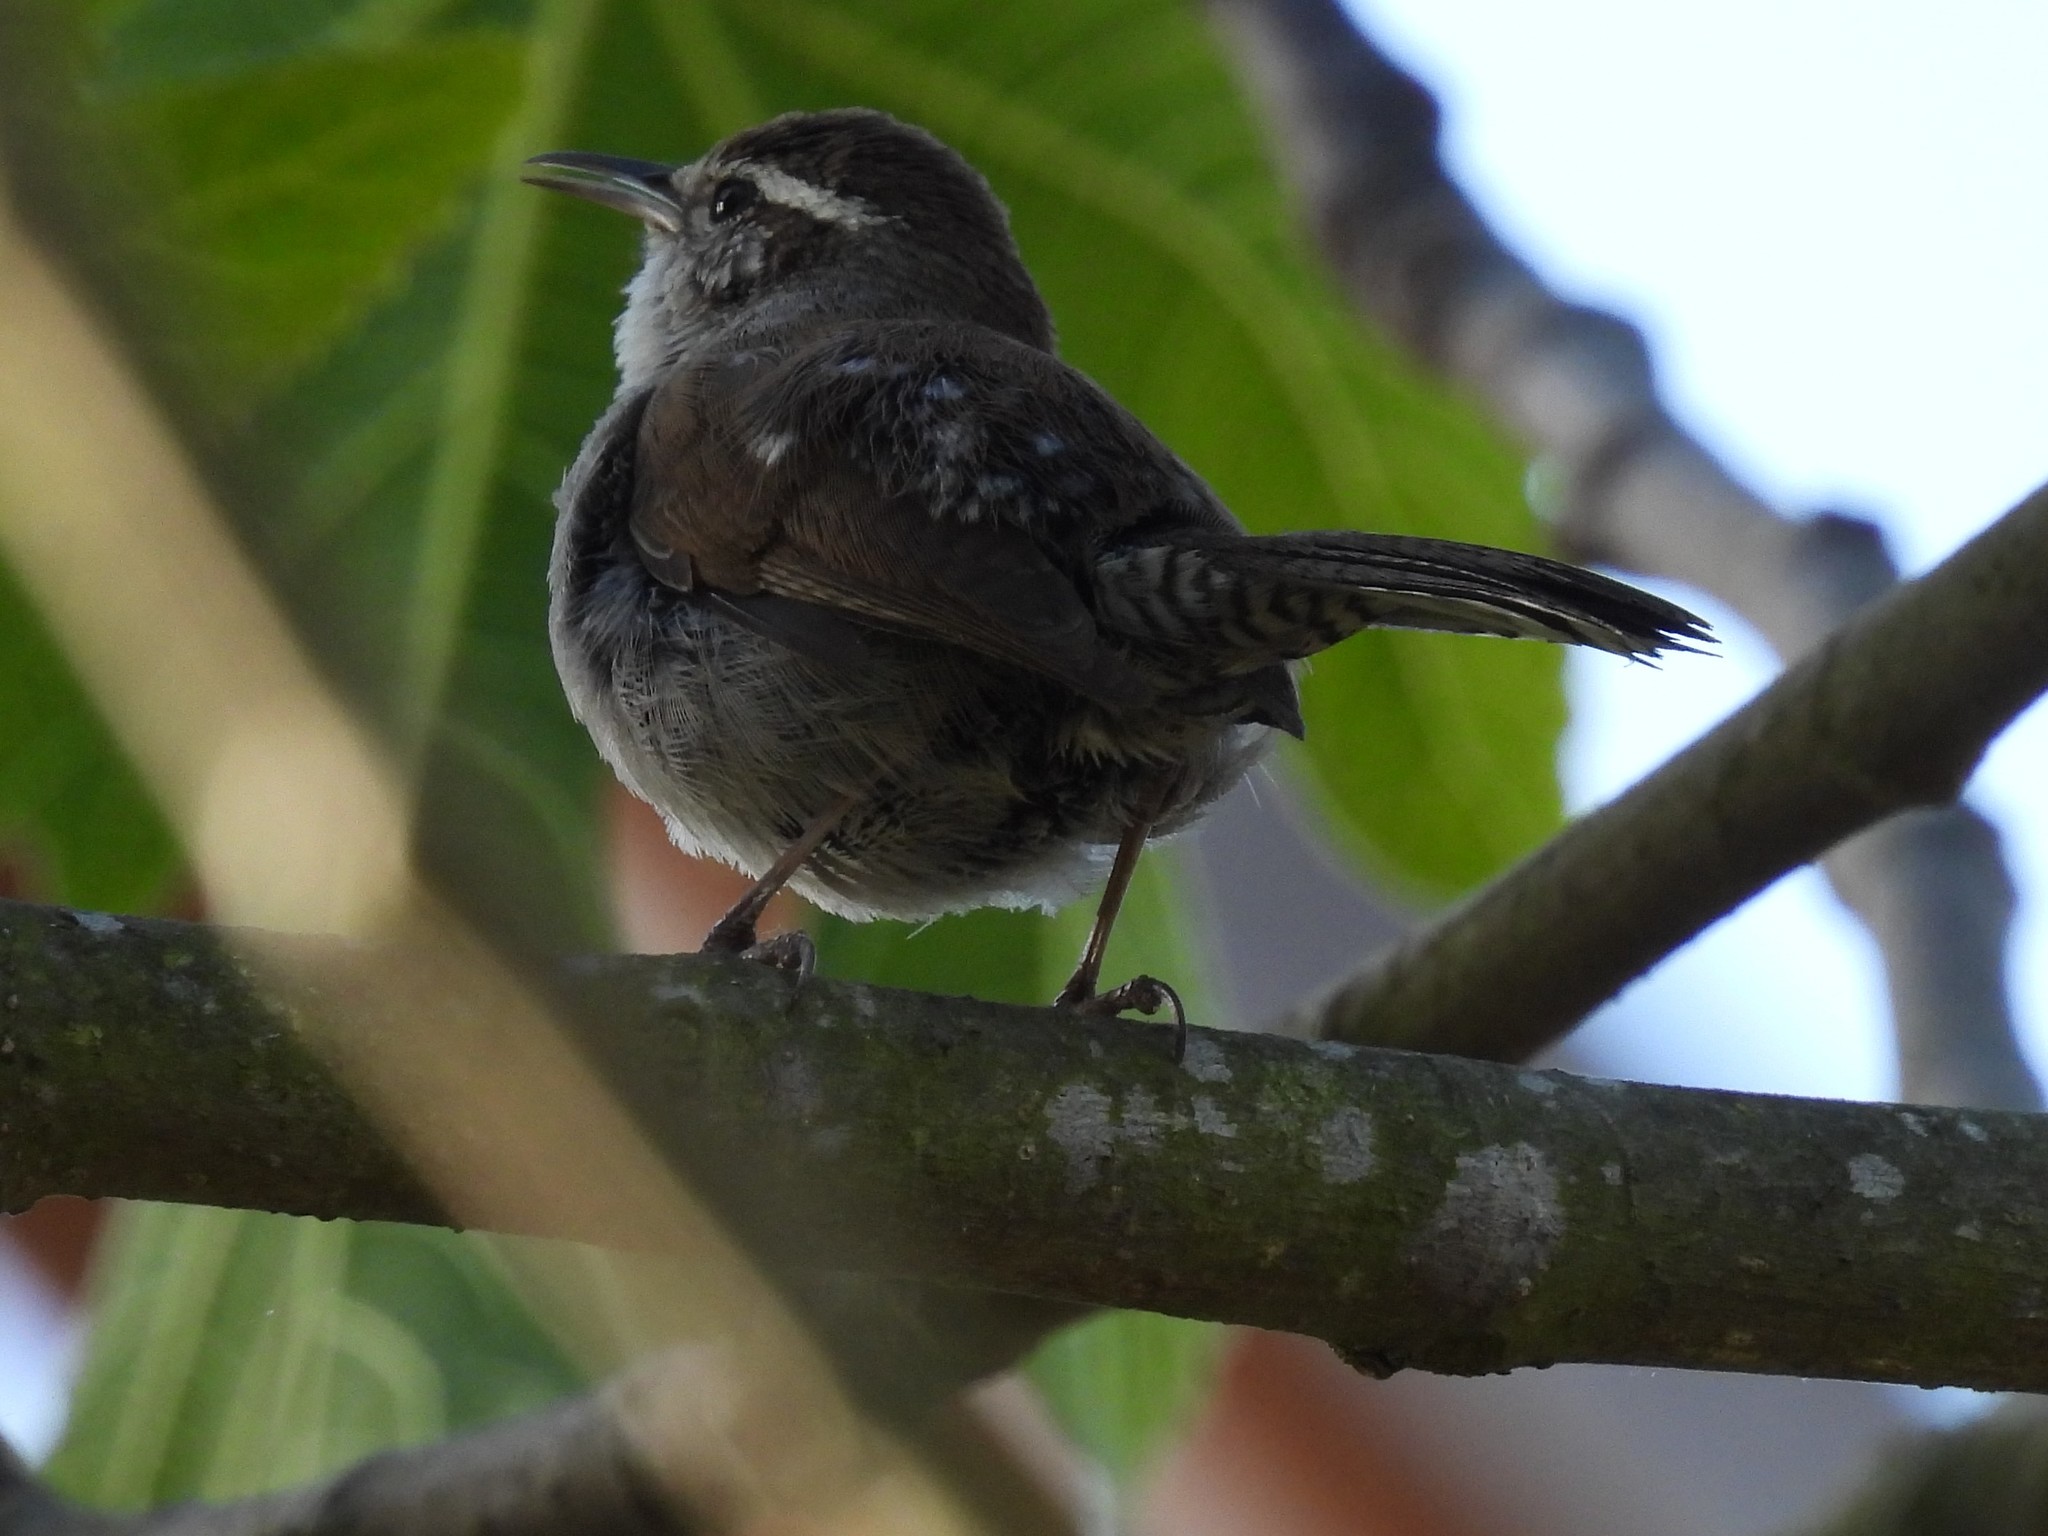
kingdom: Animalia
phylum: Chordata
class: Aves
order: Passeriformes
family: Troglodytidae
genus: Thryomanes
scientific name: Thryomanes bewickii
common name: Bewick's wren
